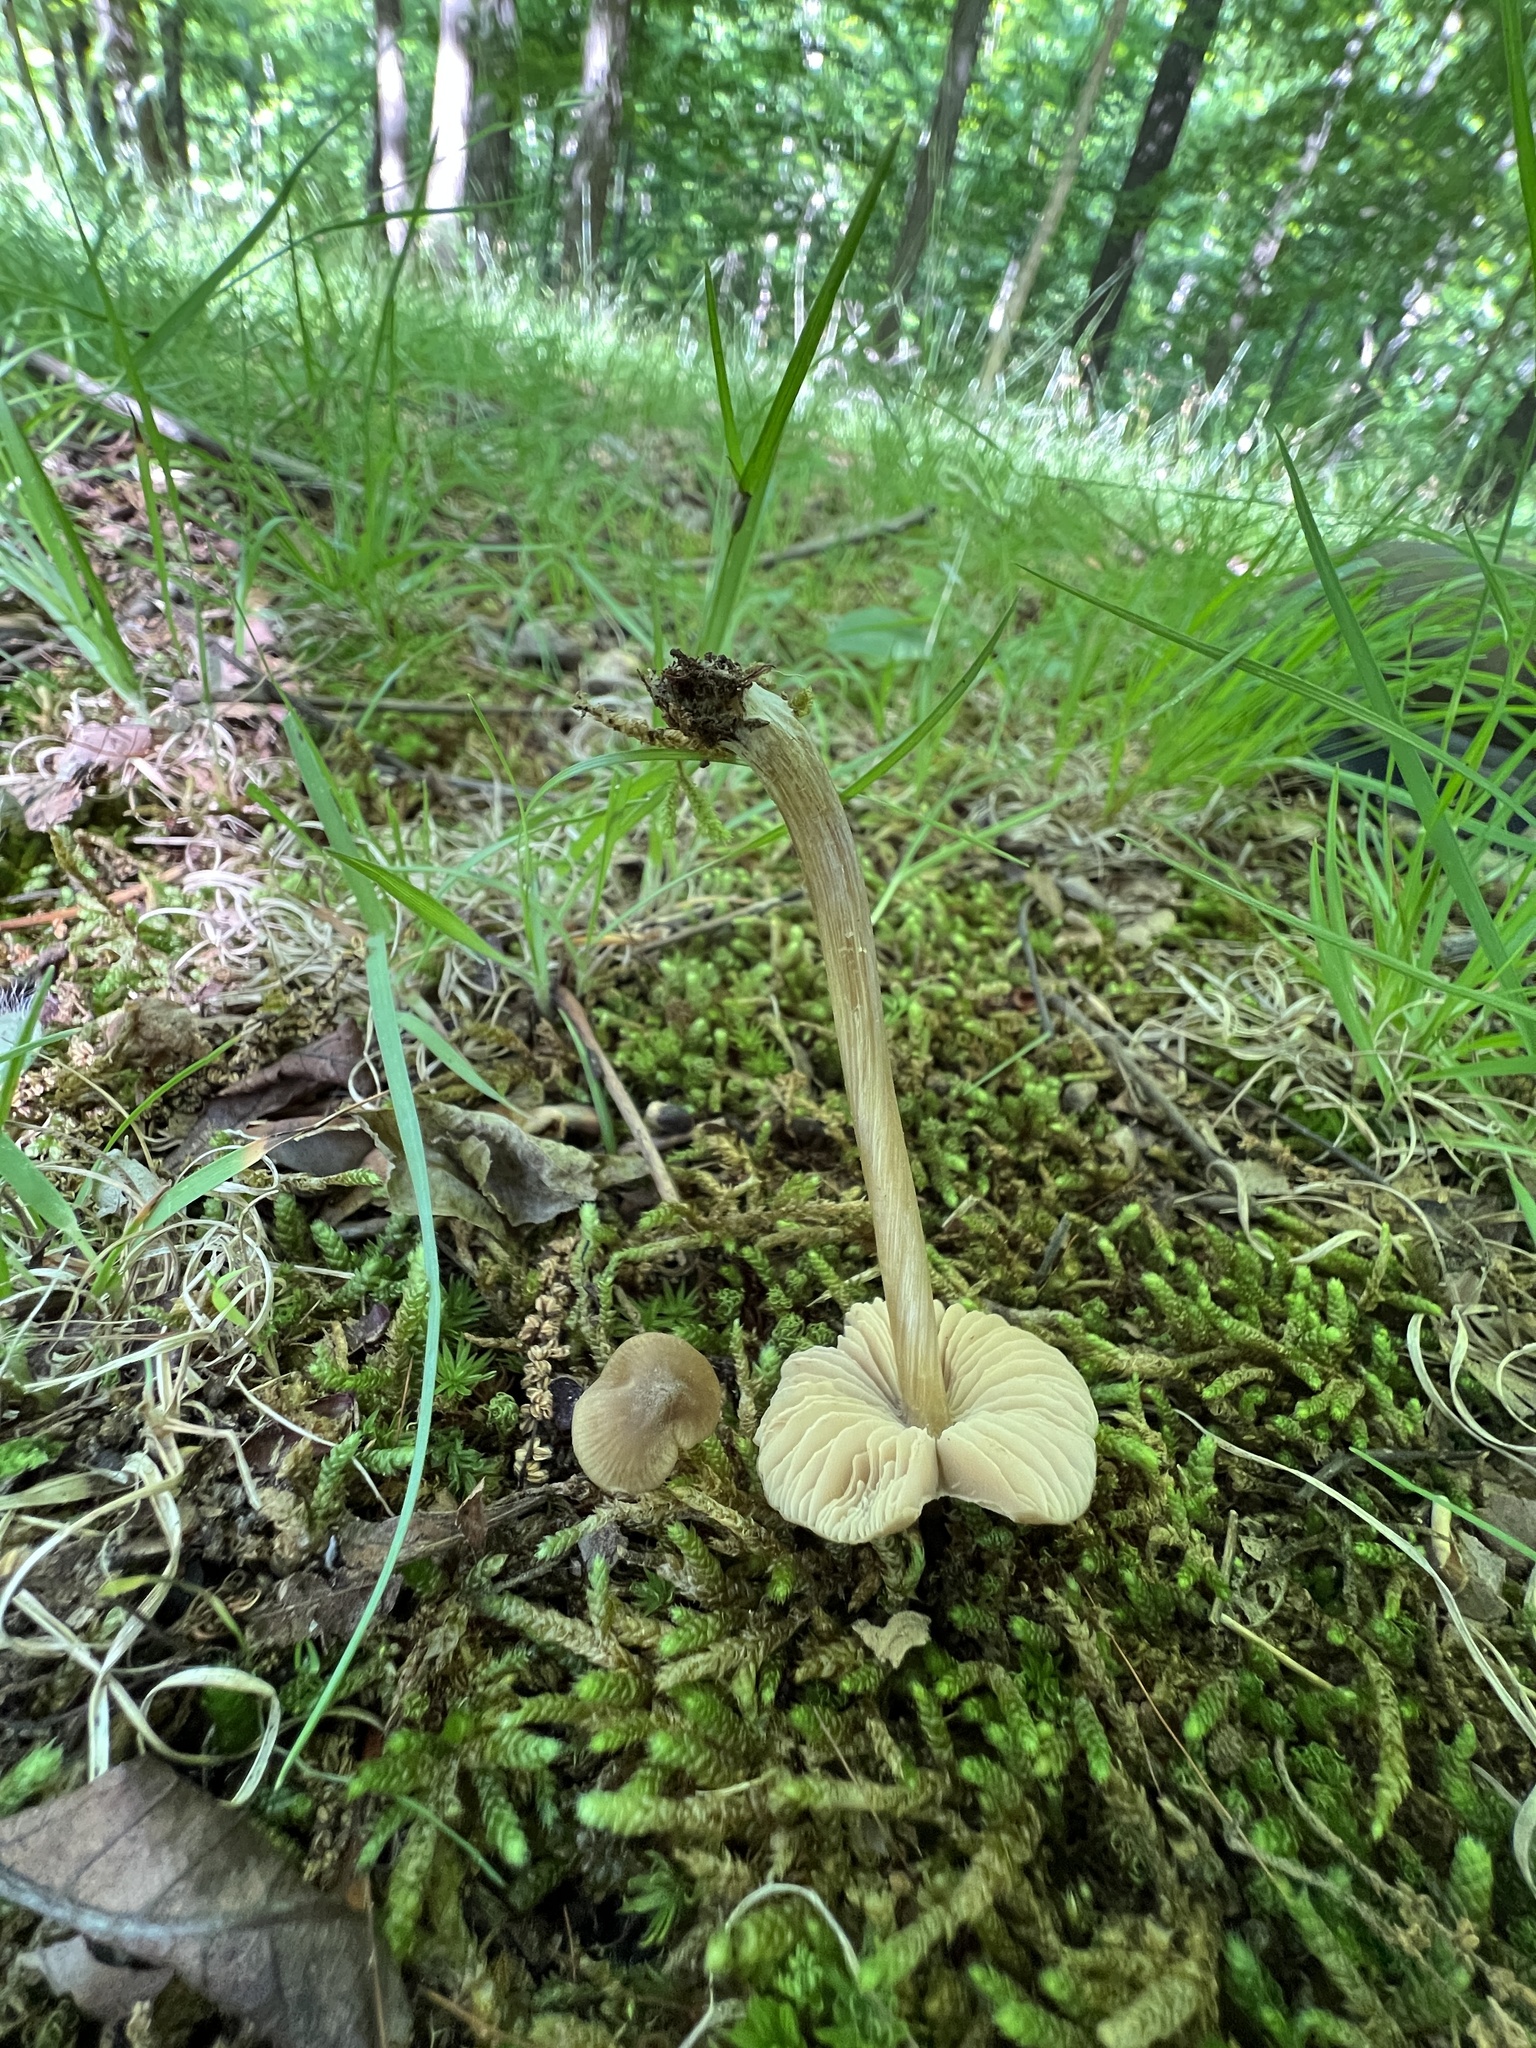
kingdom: Fungi
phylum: Basidiomycota
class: Agaricomycetes
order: Agaricales
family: Entolomataceae
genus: Entoloma
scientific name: Entoloma vernum
